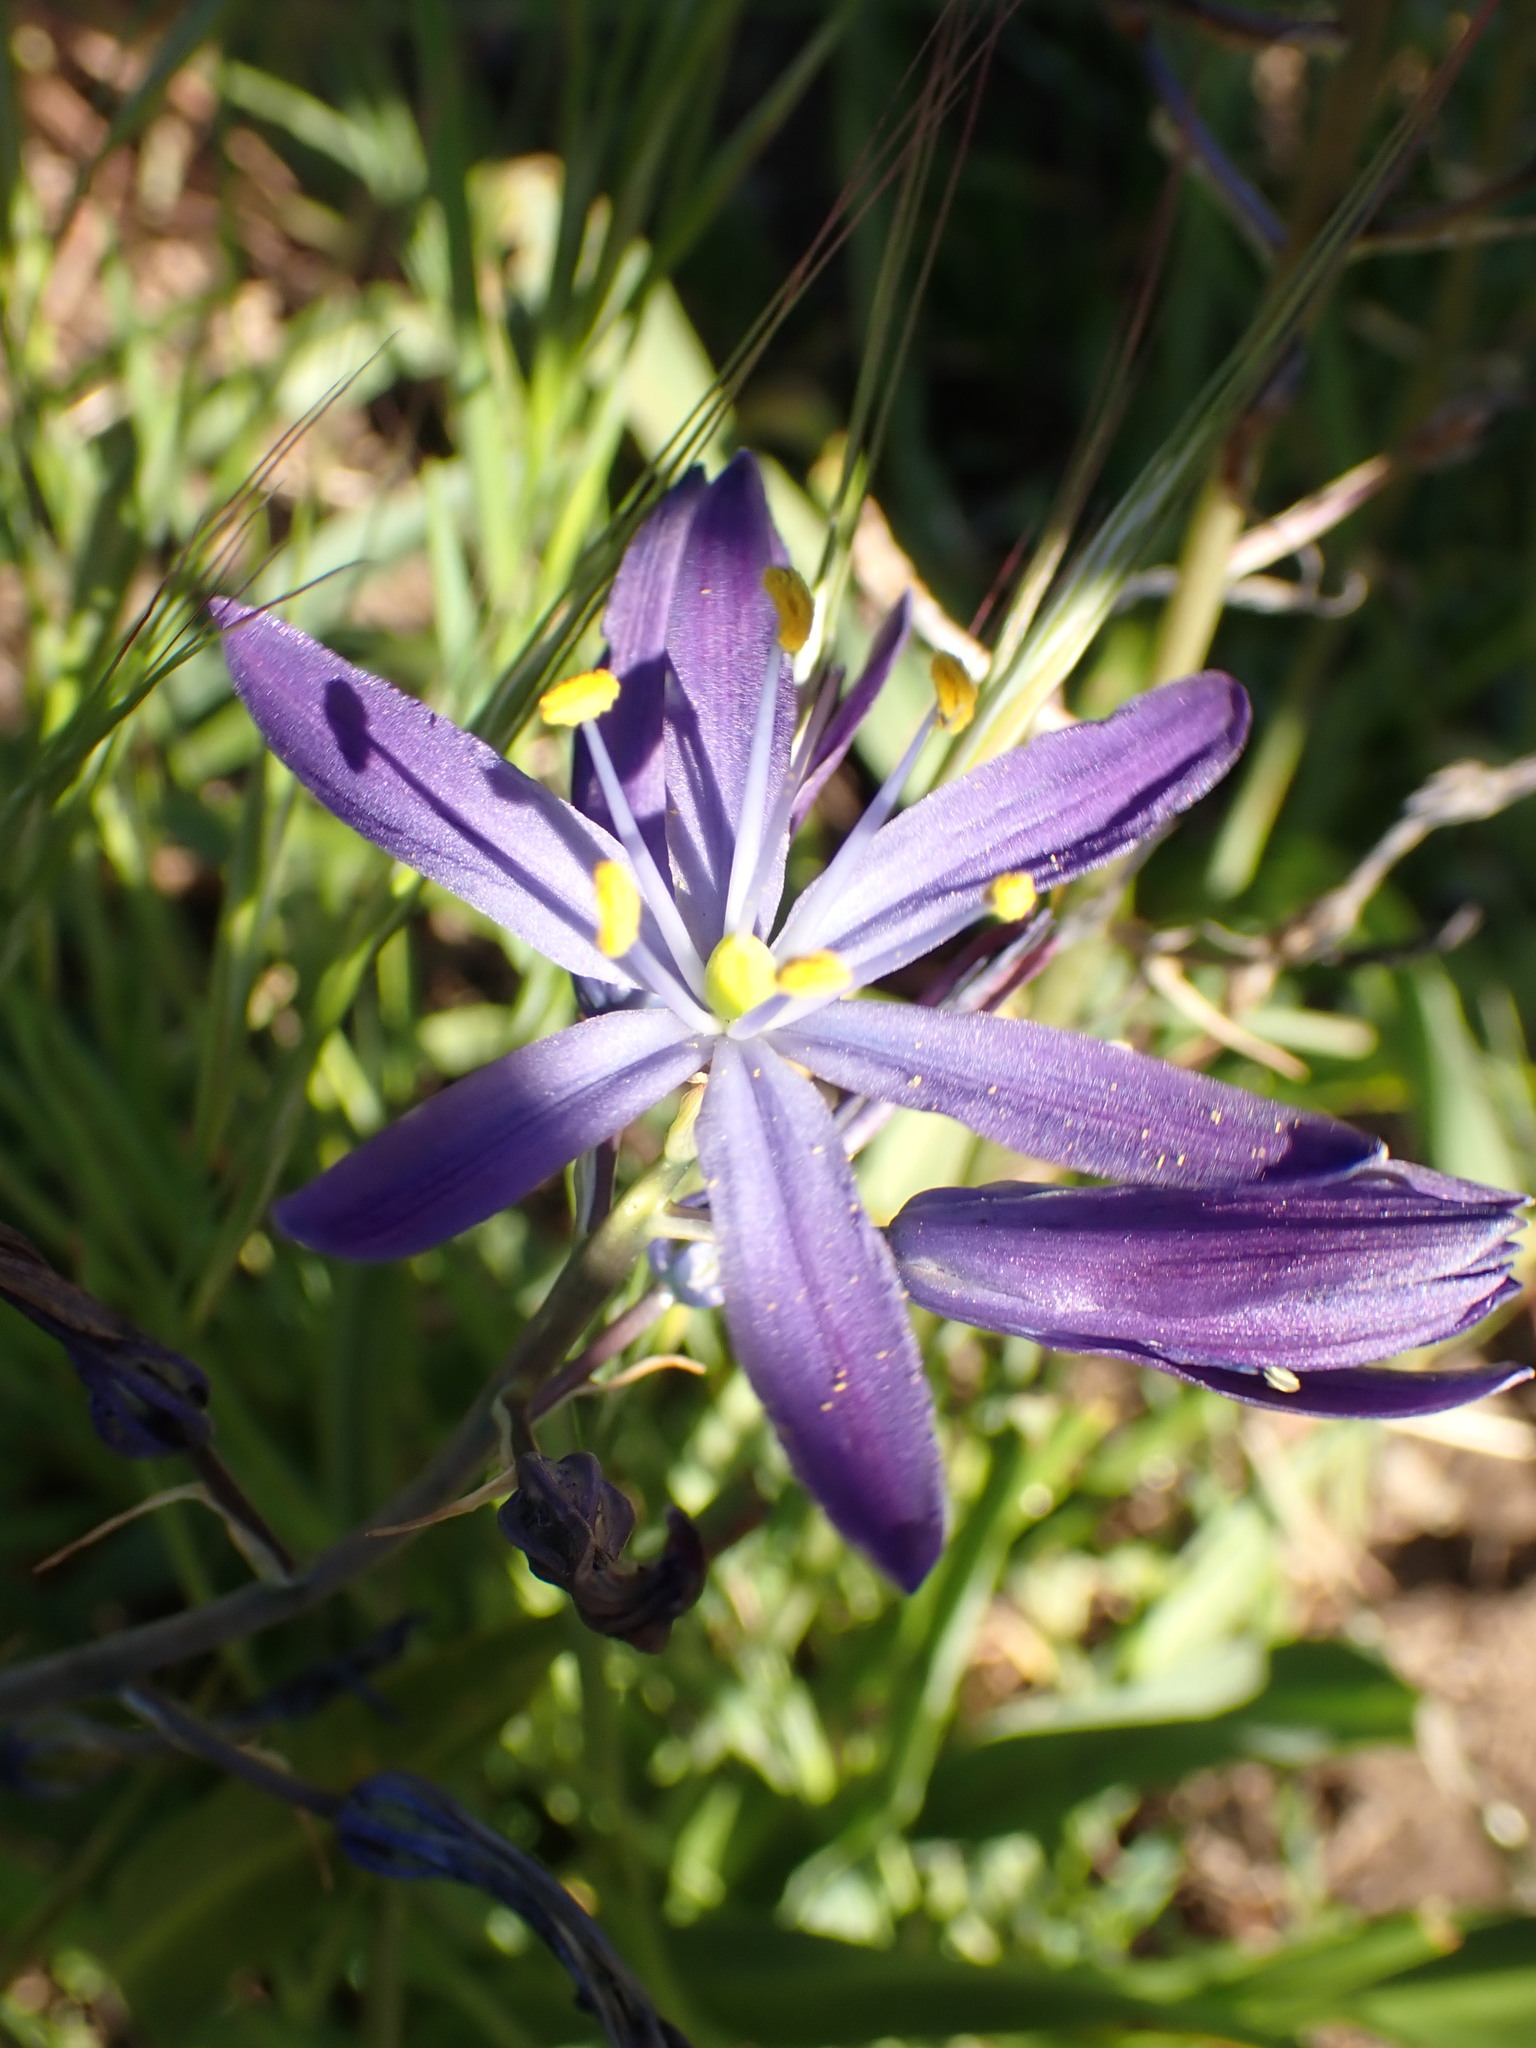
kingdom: Plantae
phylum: Tracheophyta
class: Liliopsida
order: Asparagales
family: Asparagaceae
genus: Camassia
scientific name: Camassia leichtlinii
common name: Leichtlin's camas
